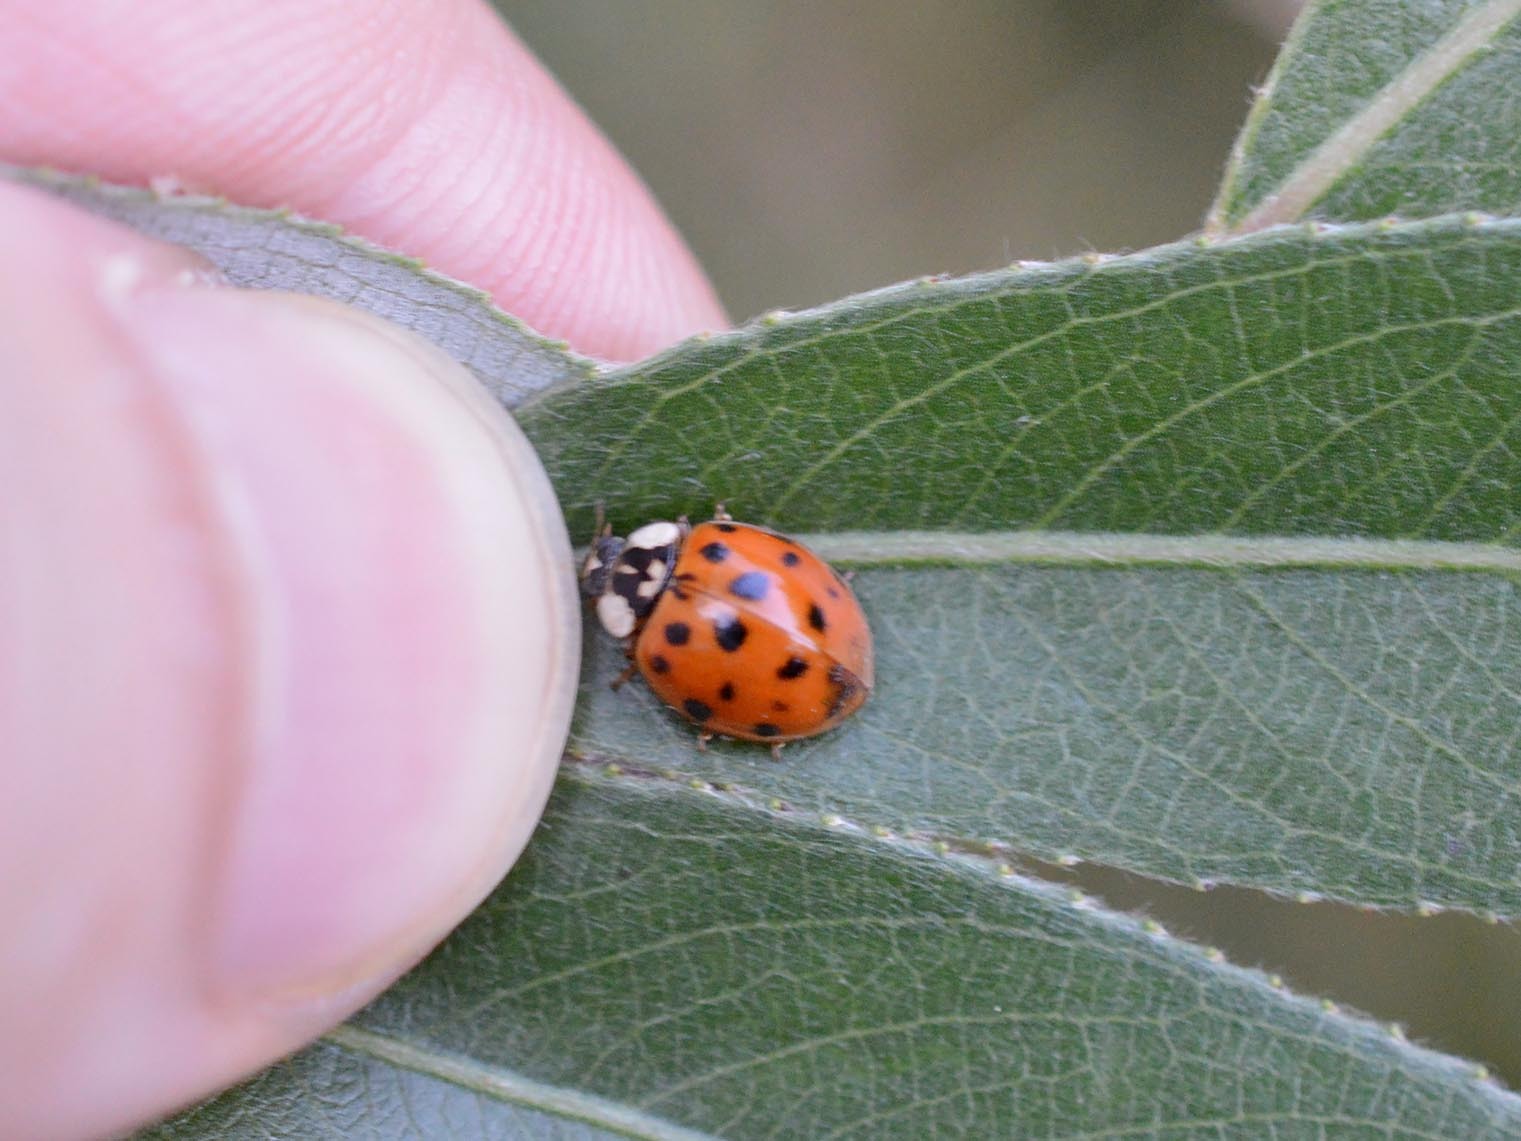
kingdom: Animalia
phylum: Arthropoda
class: Insecta
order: Coleoptera
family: Coccinellidae
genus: Harmonia
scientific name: Harmonia axyridis
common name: Harlequin ladybird
